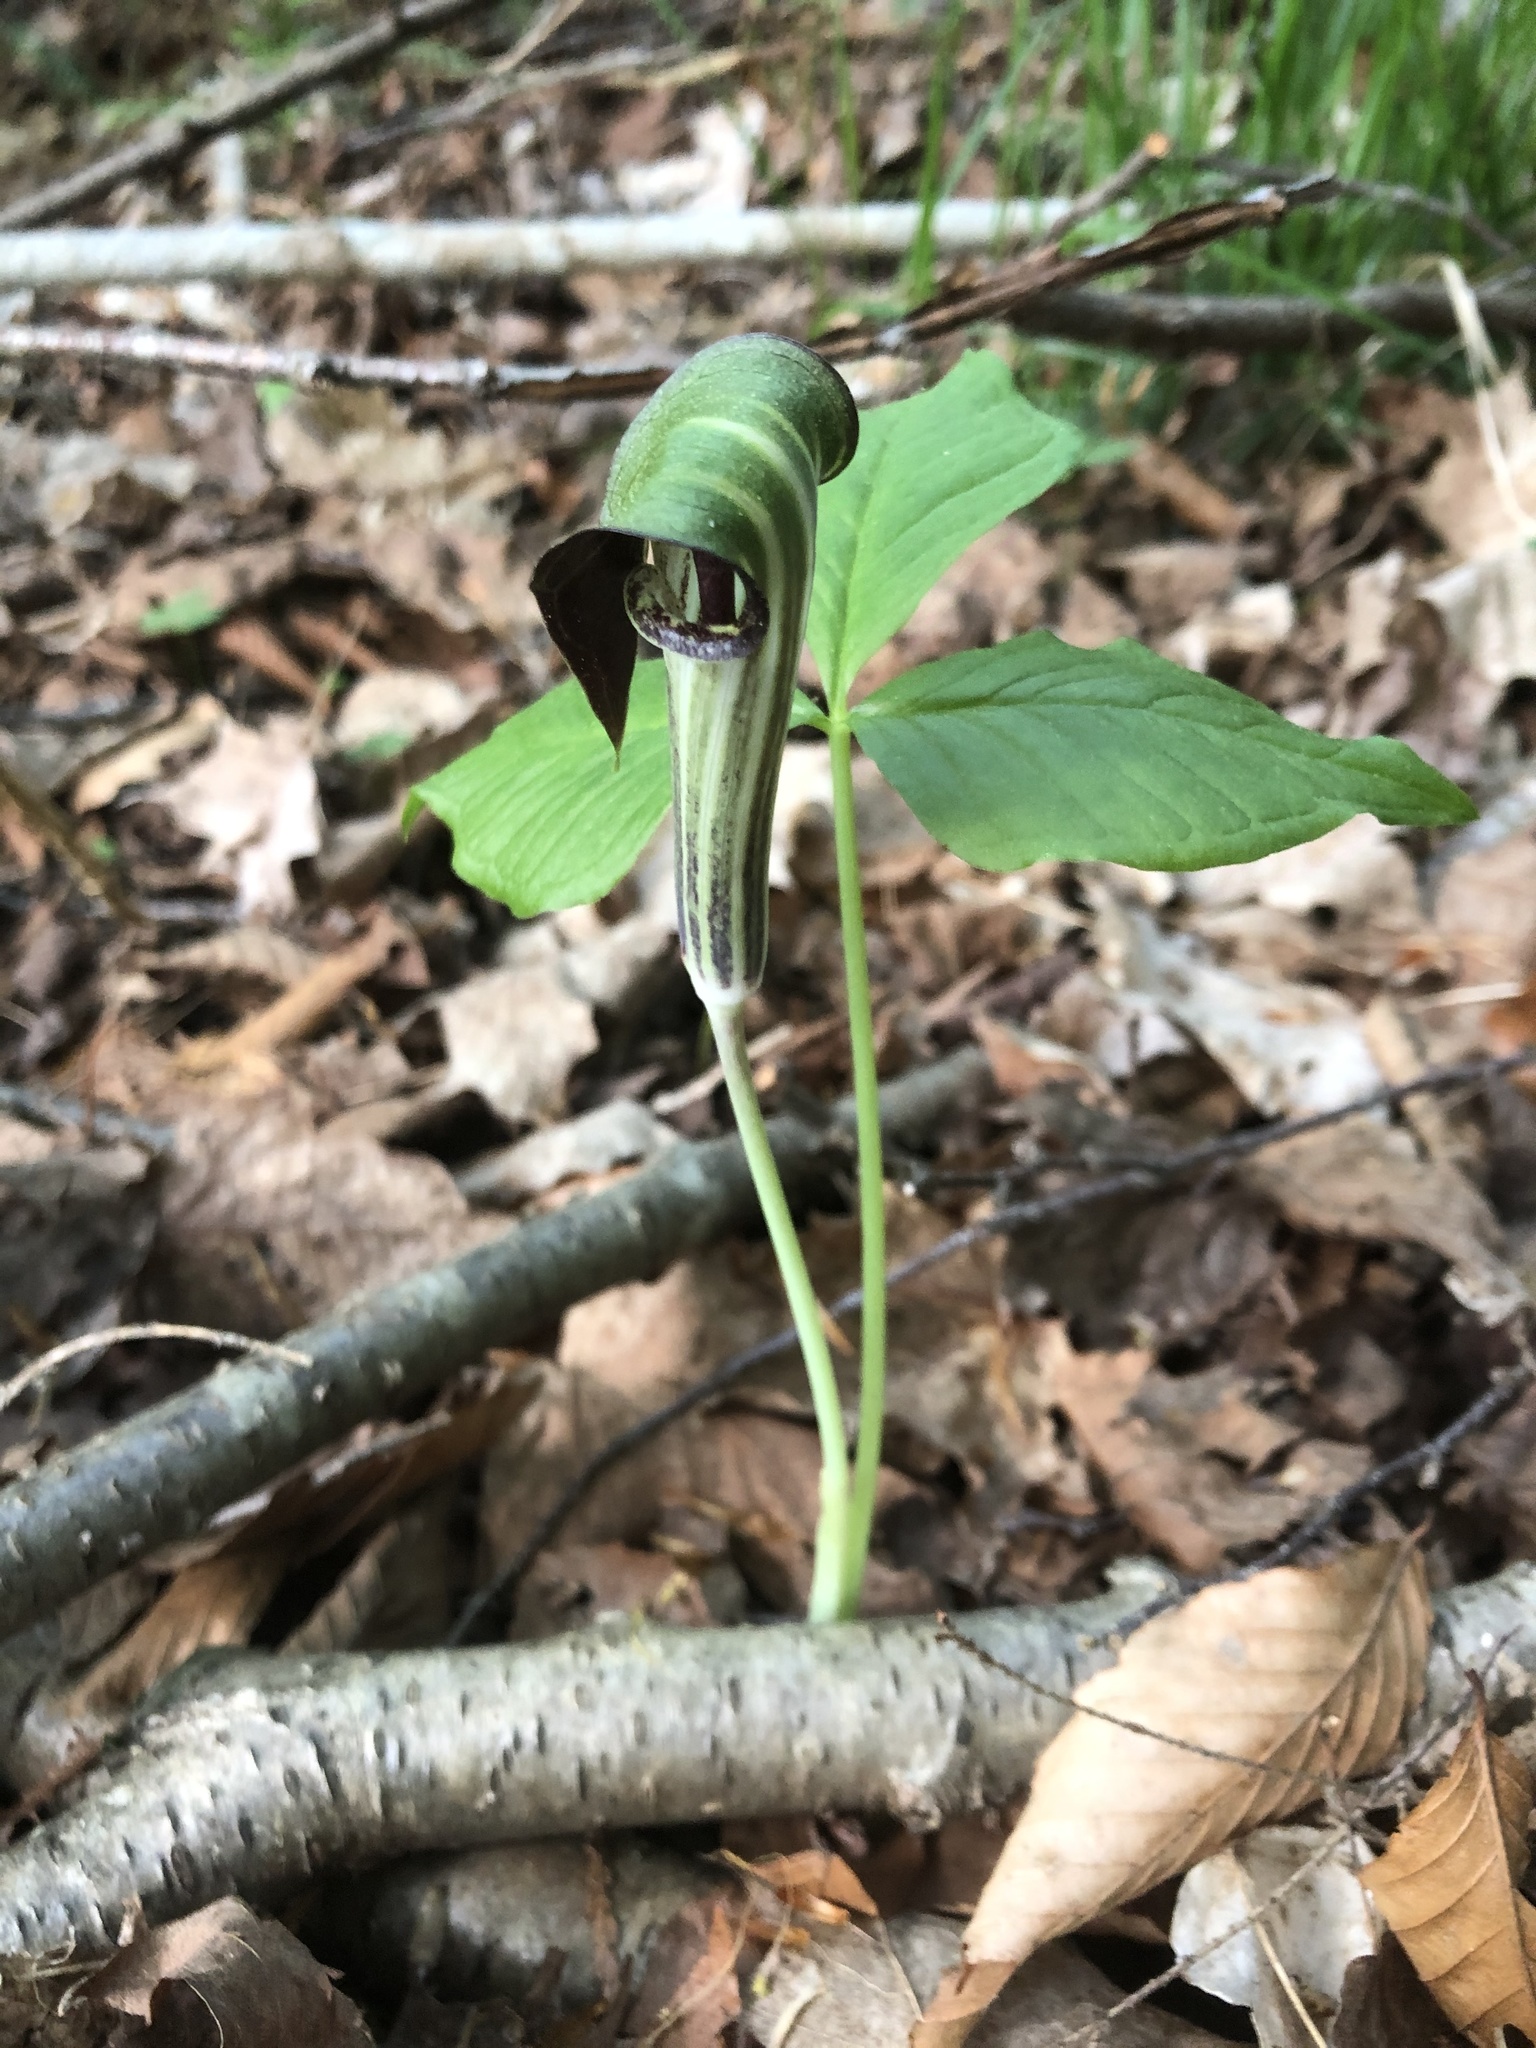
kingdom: Plantae
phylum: Tracheophyta
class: Liliopsida
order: Alismatales
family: Araceae
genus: Arisaema
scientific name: Arisaema triphyllum
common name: Jack-in-the-pulpit
